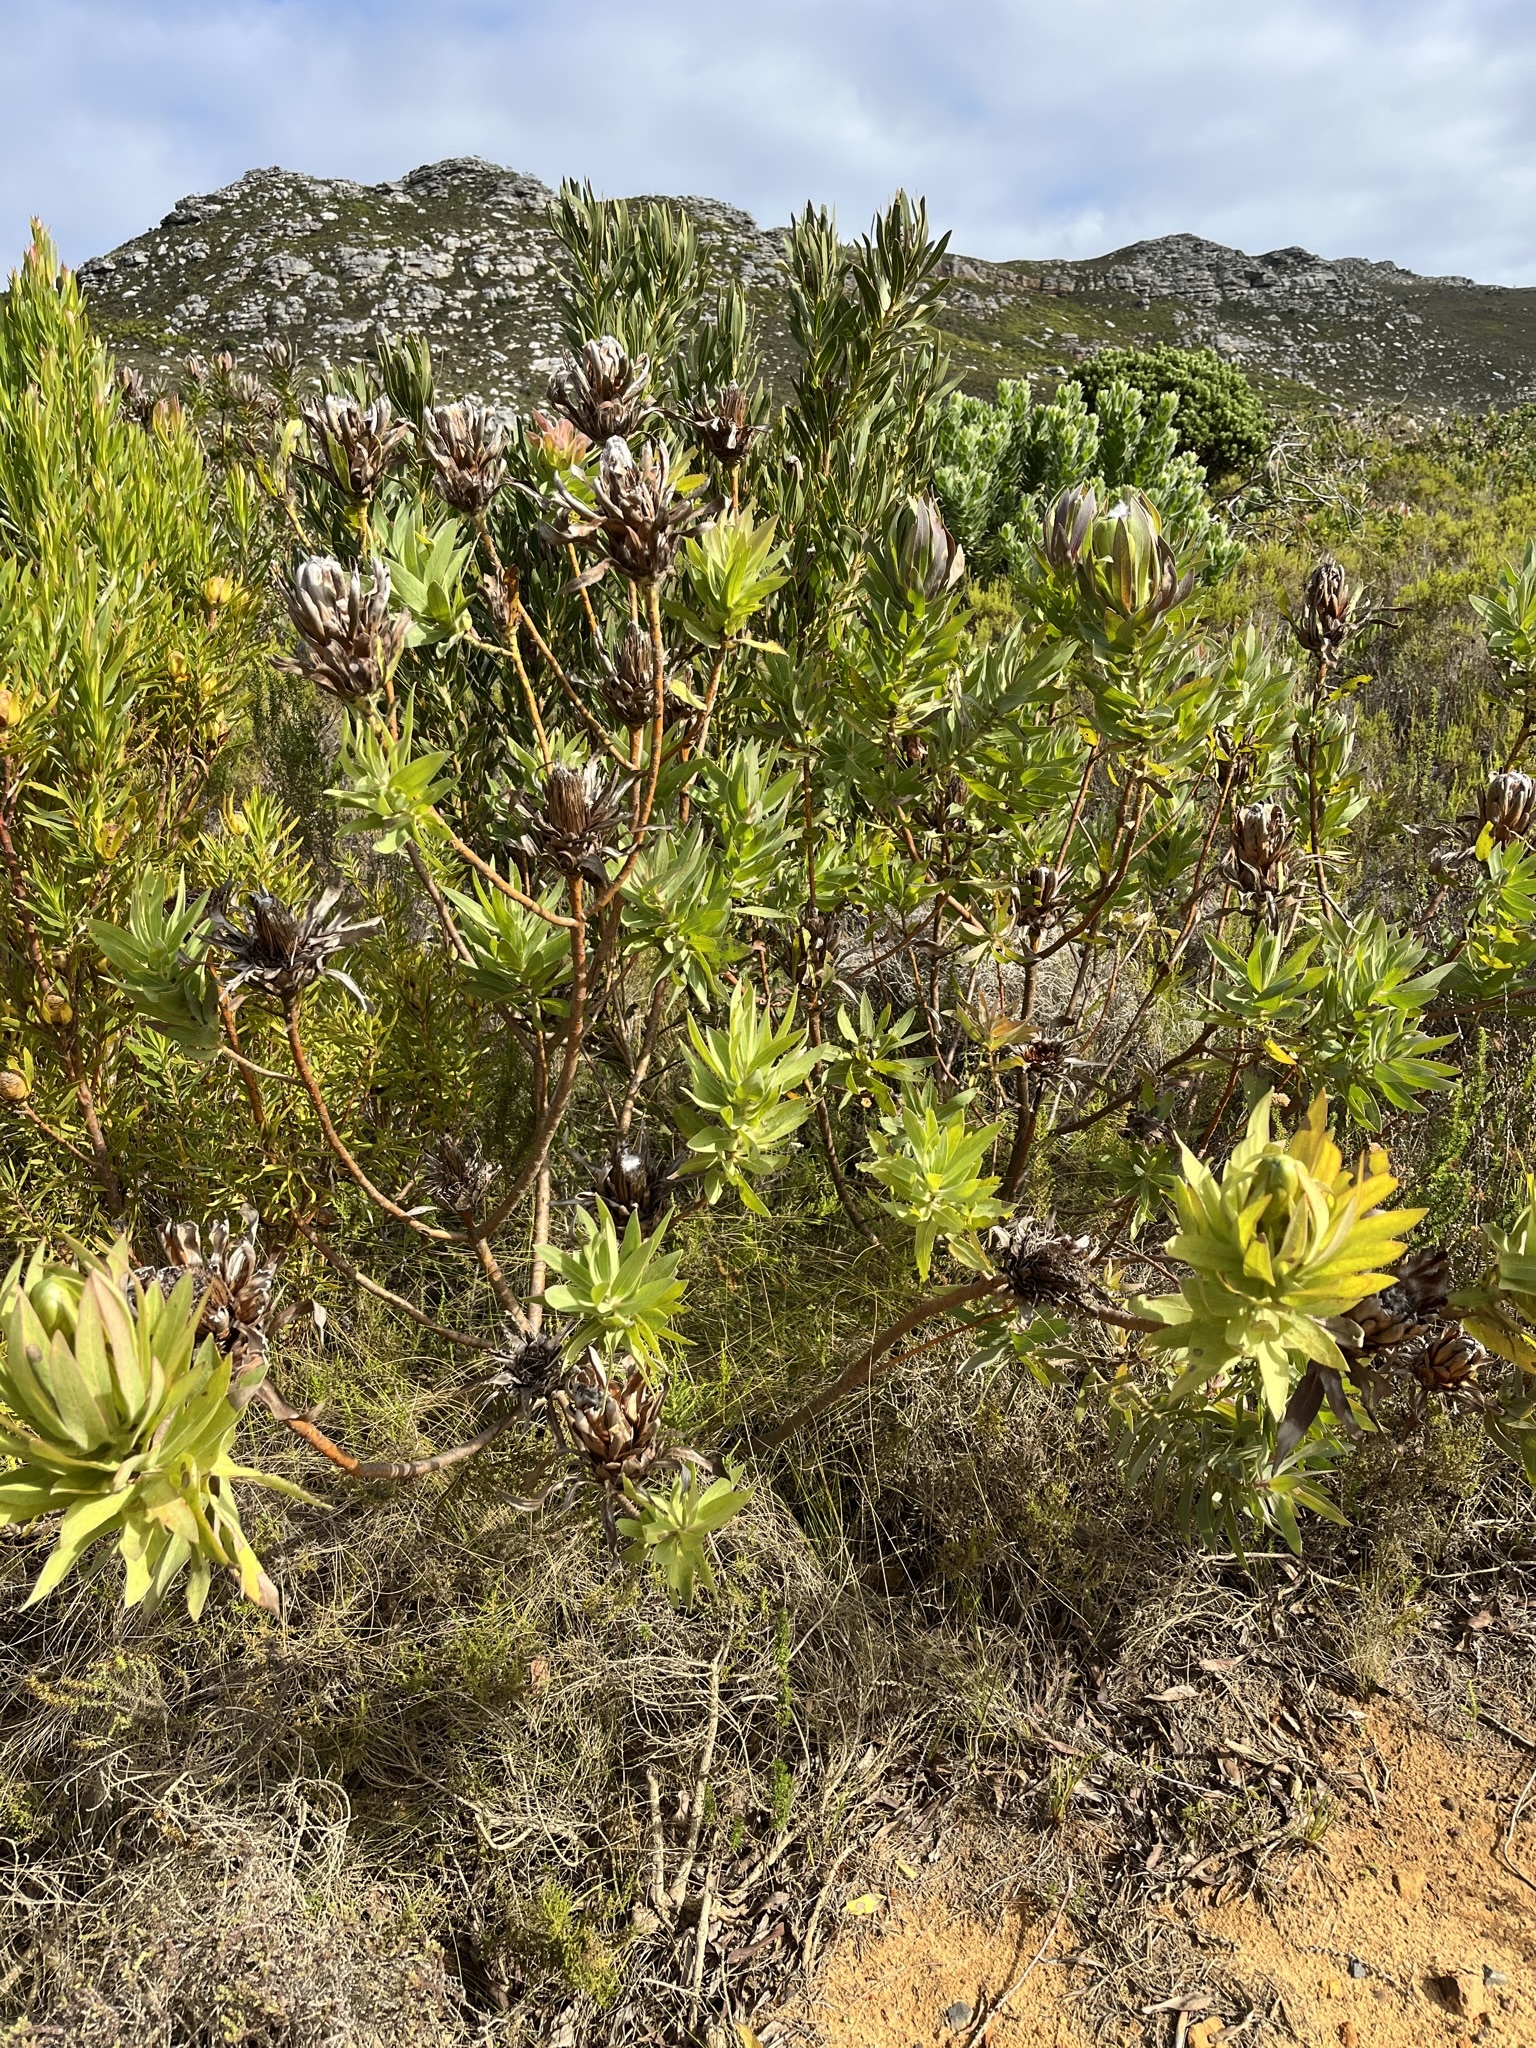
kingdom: Plantae
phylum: Tracheophyta
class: Magnoliopsida
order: Proteales
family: Proteaceae
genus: Protea
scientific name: Protea coronata
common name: Green sugarbush
